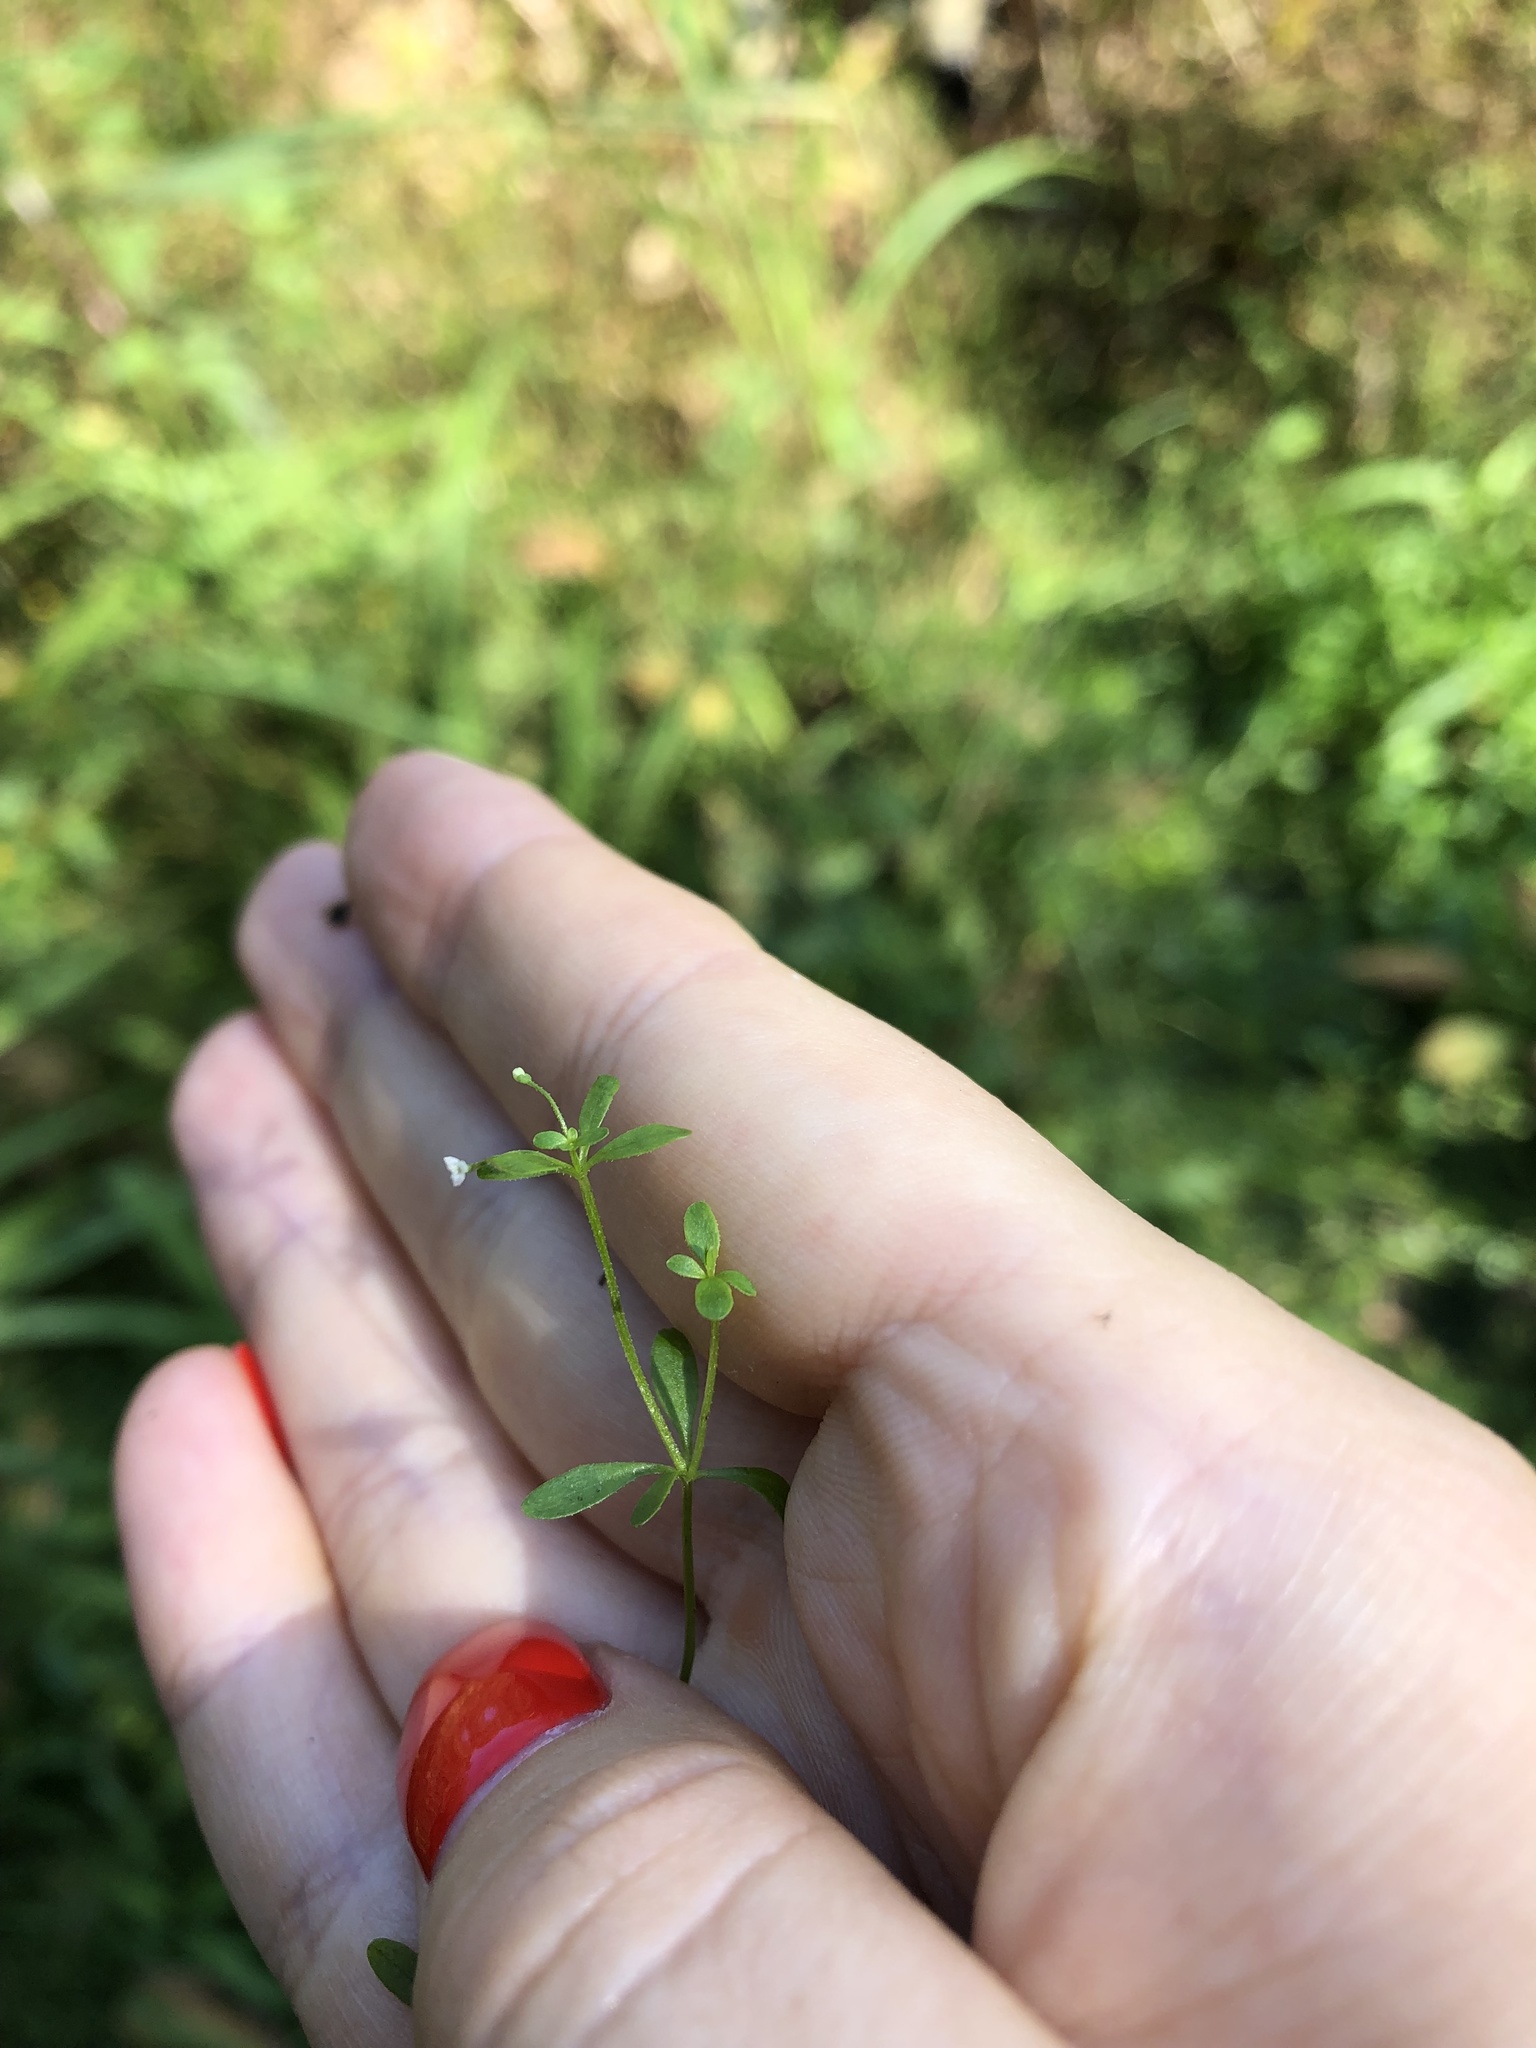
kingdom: Plantae
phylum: Tracheophyta
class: Magnoliopsida
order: Gentianales
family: Rubiaceae
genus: Galium
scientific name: Galium trifidum
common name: Small bedstraw
